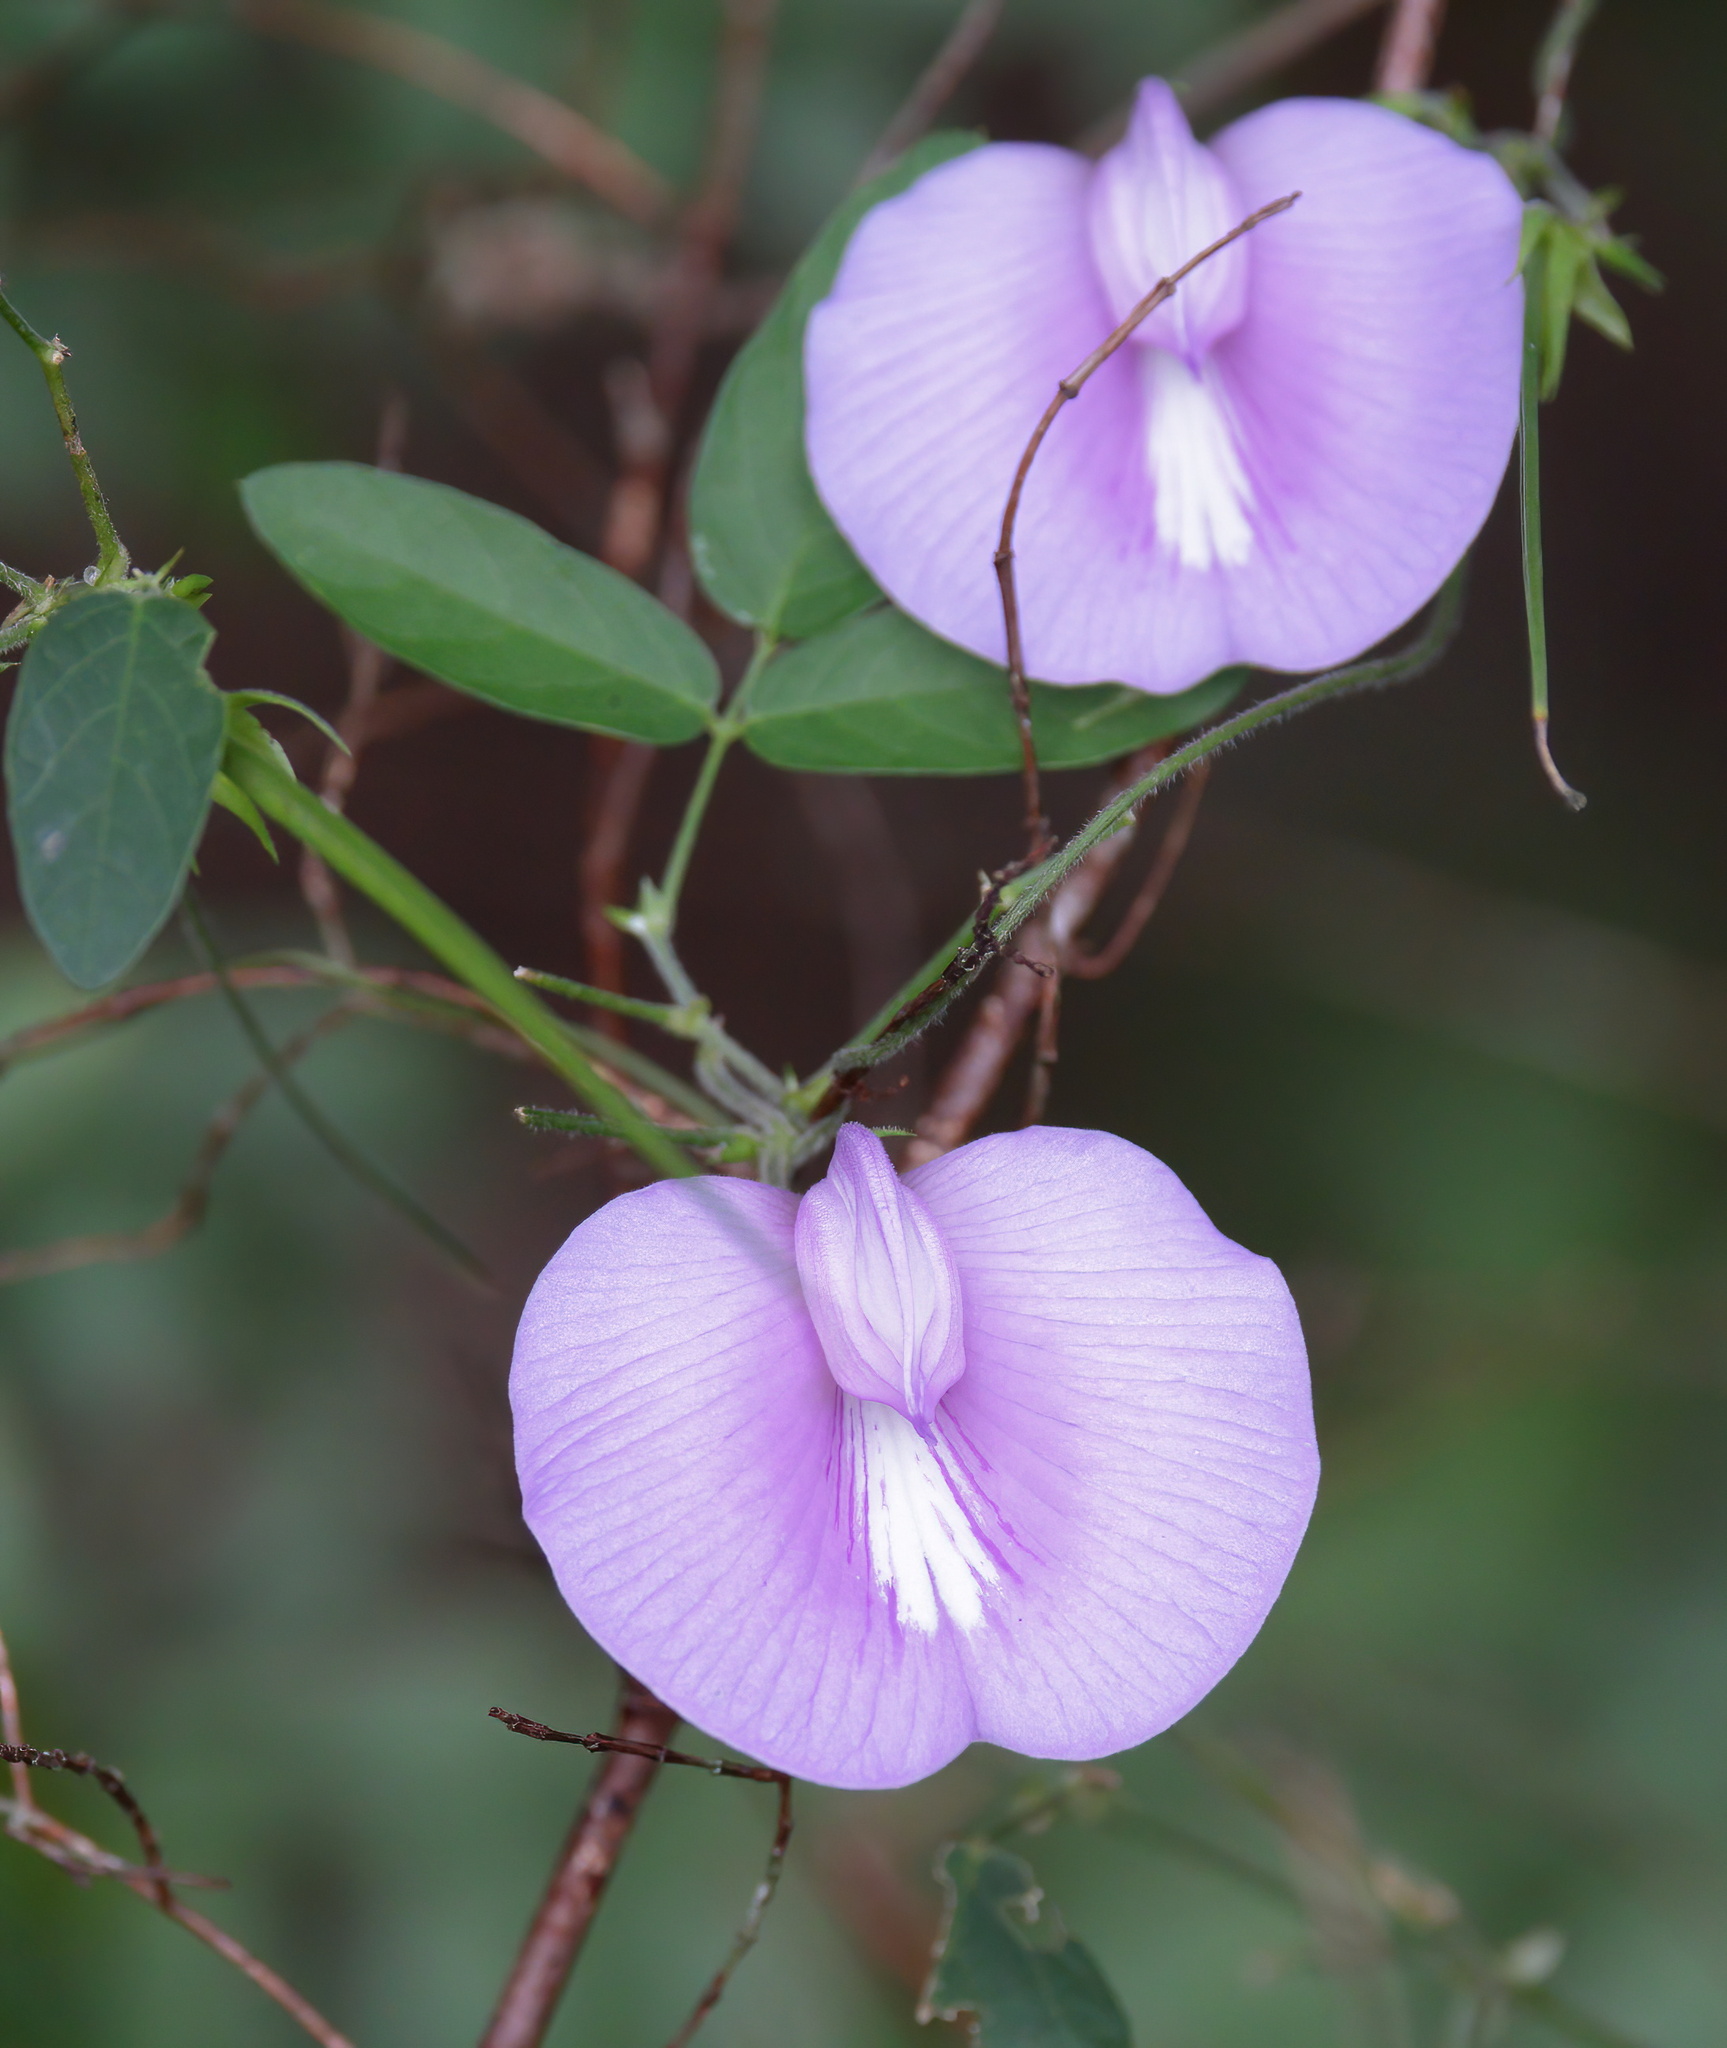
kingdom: Plantae
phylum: Tracheophyta
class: Magnoliopsida
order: Fabales
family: Fabaceae
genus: Centrosema
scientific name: Centrosema virginianum
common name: Butterfly-pea
